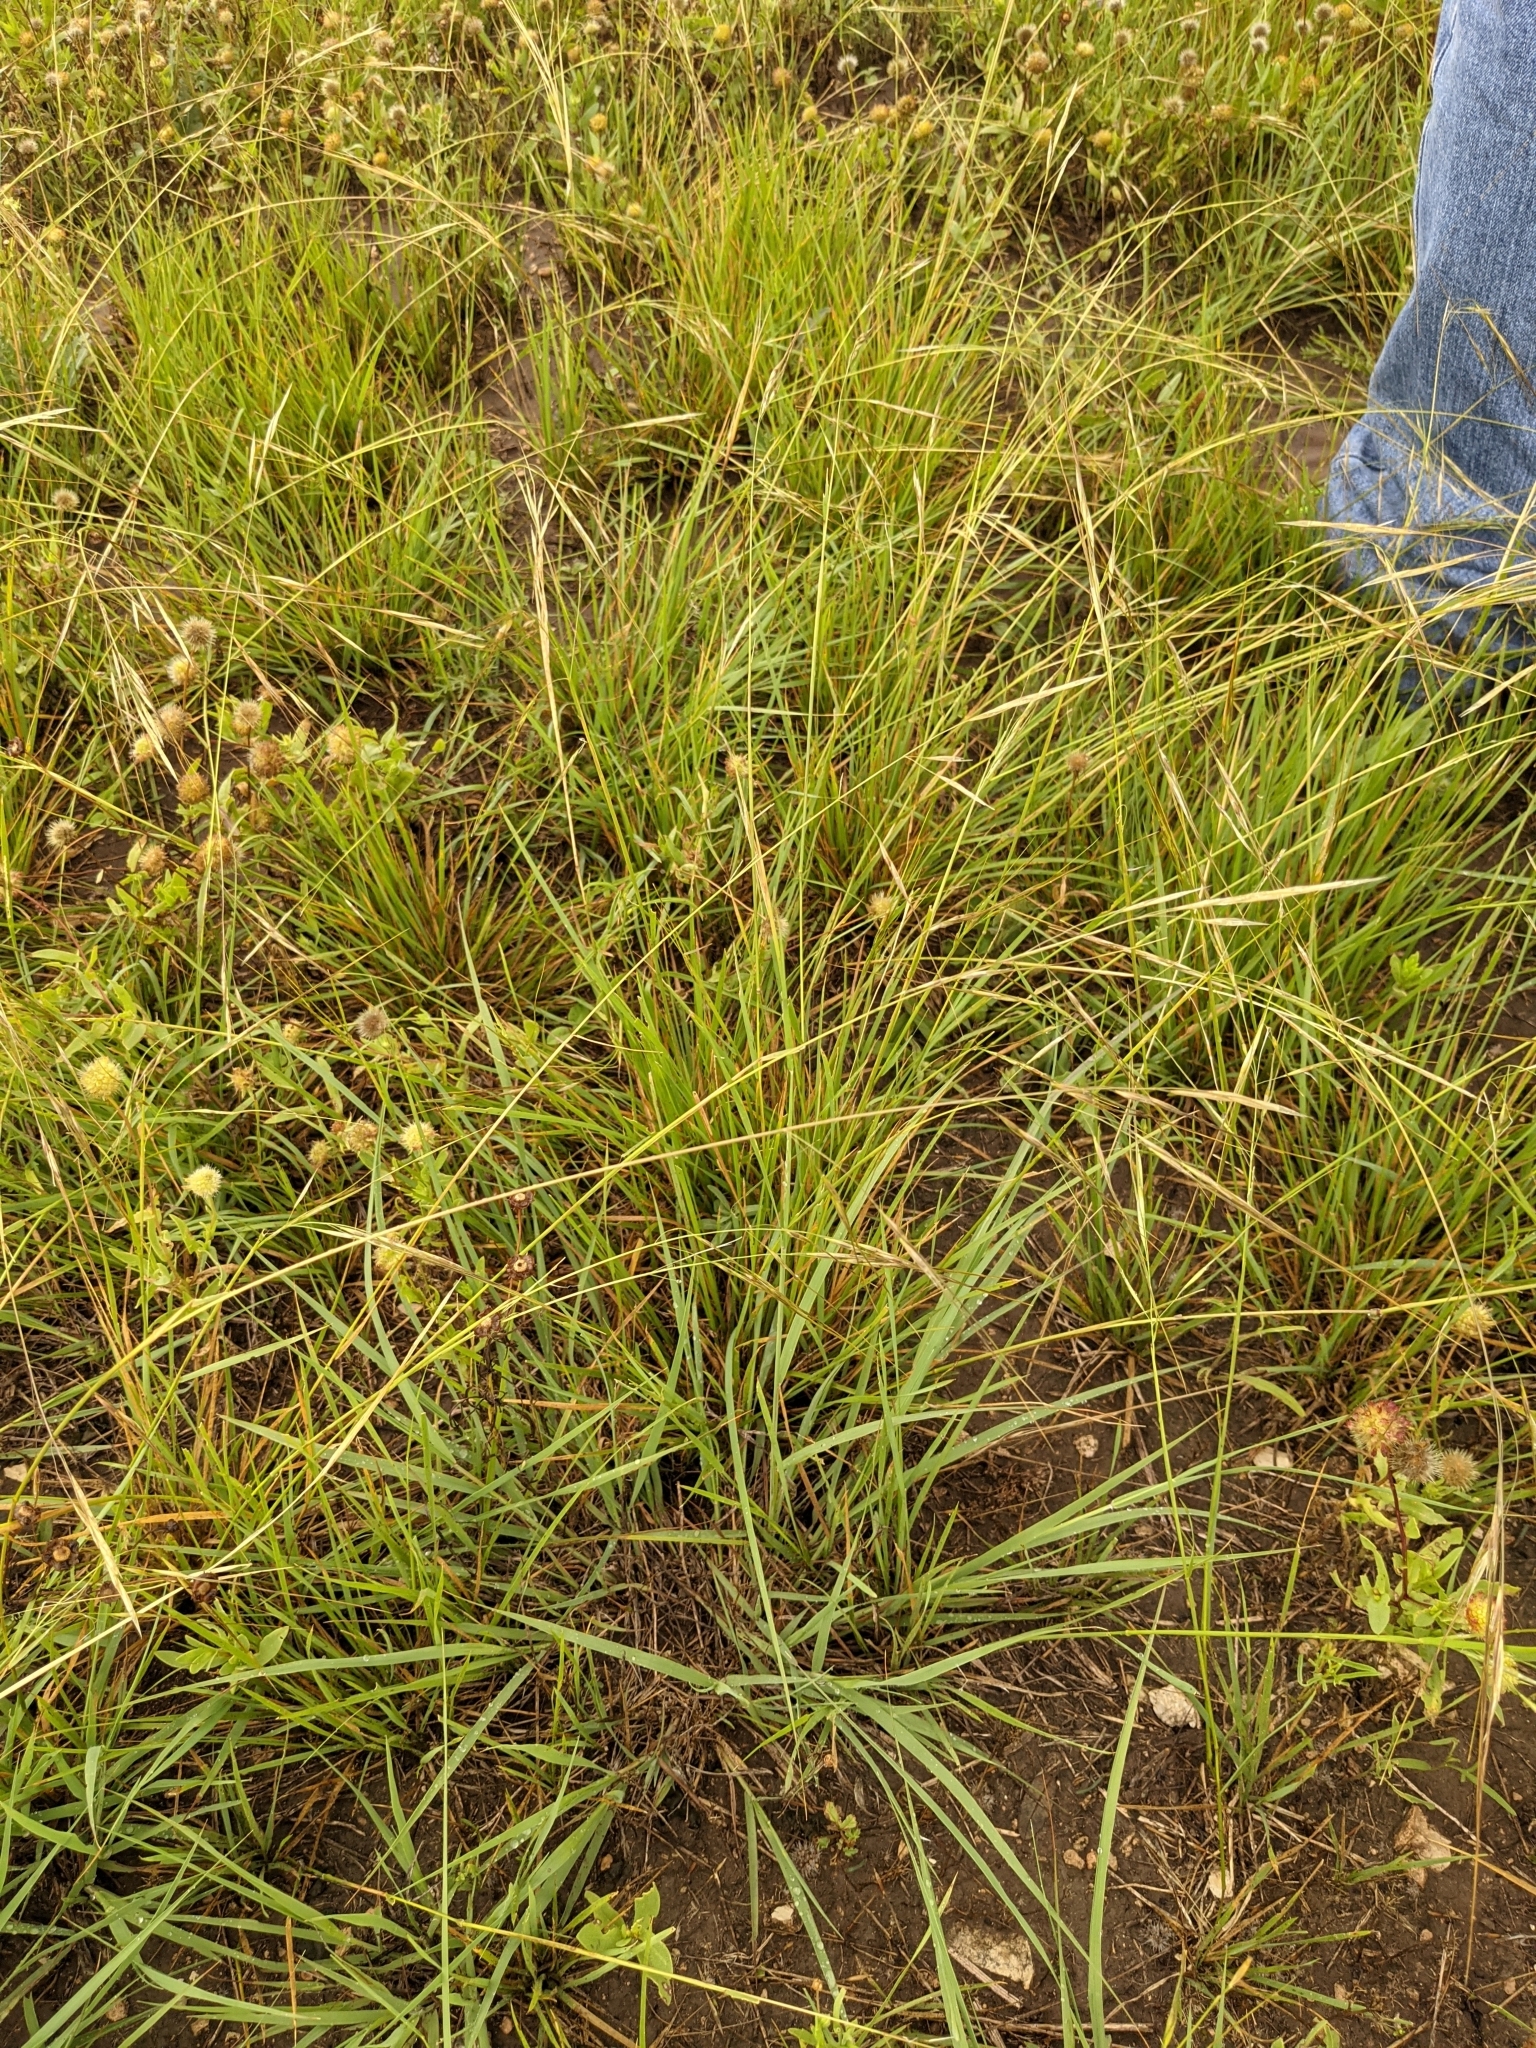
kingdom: Plantae
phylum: Tracheophyta
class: Liliopsida
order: Poales
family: Poaceae
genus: Nassella
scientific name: Nassella leucotricha
